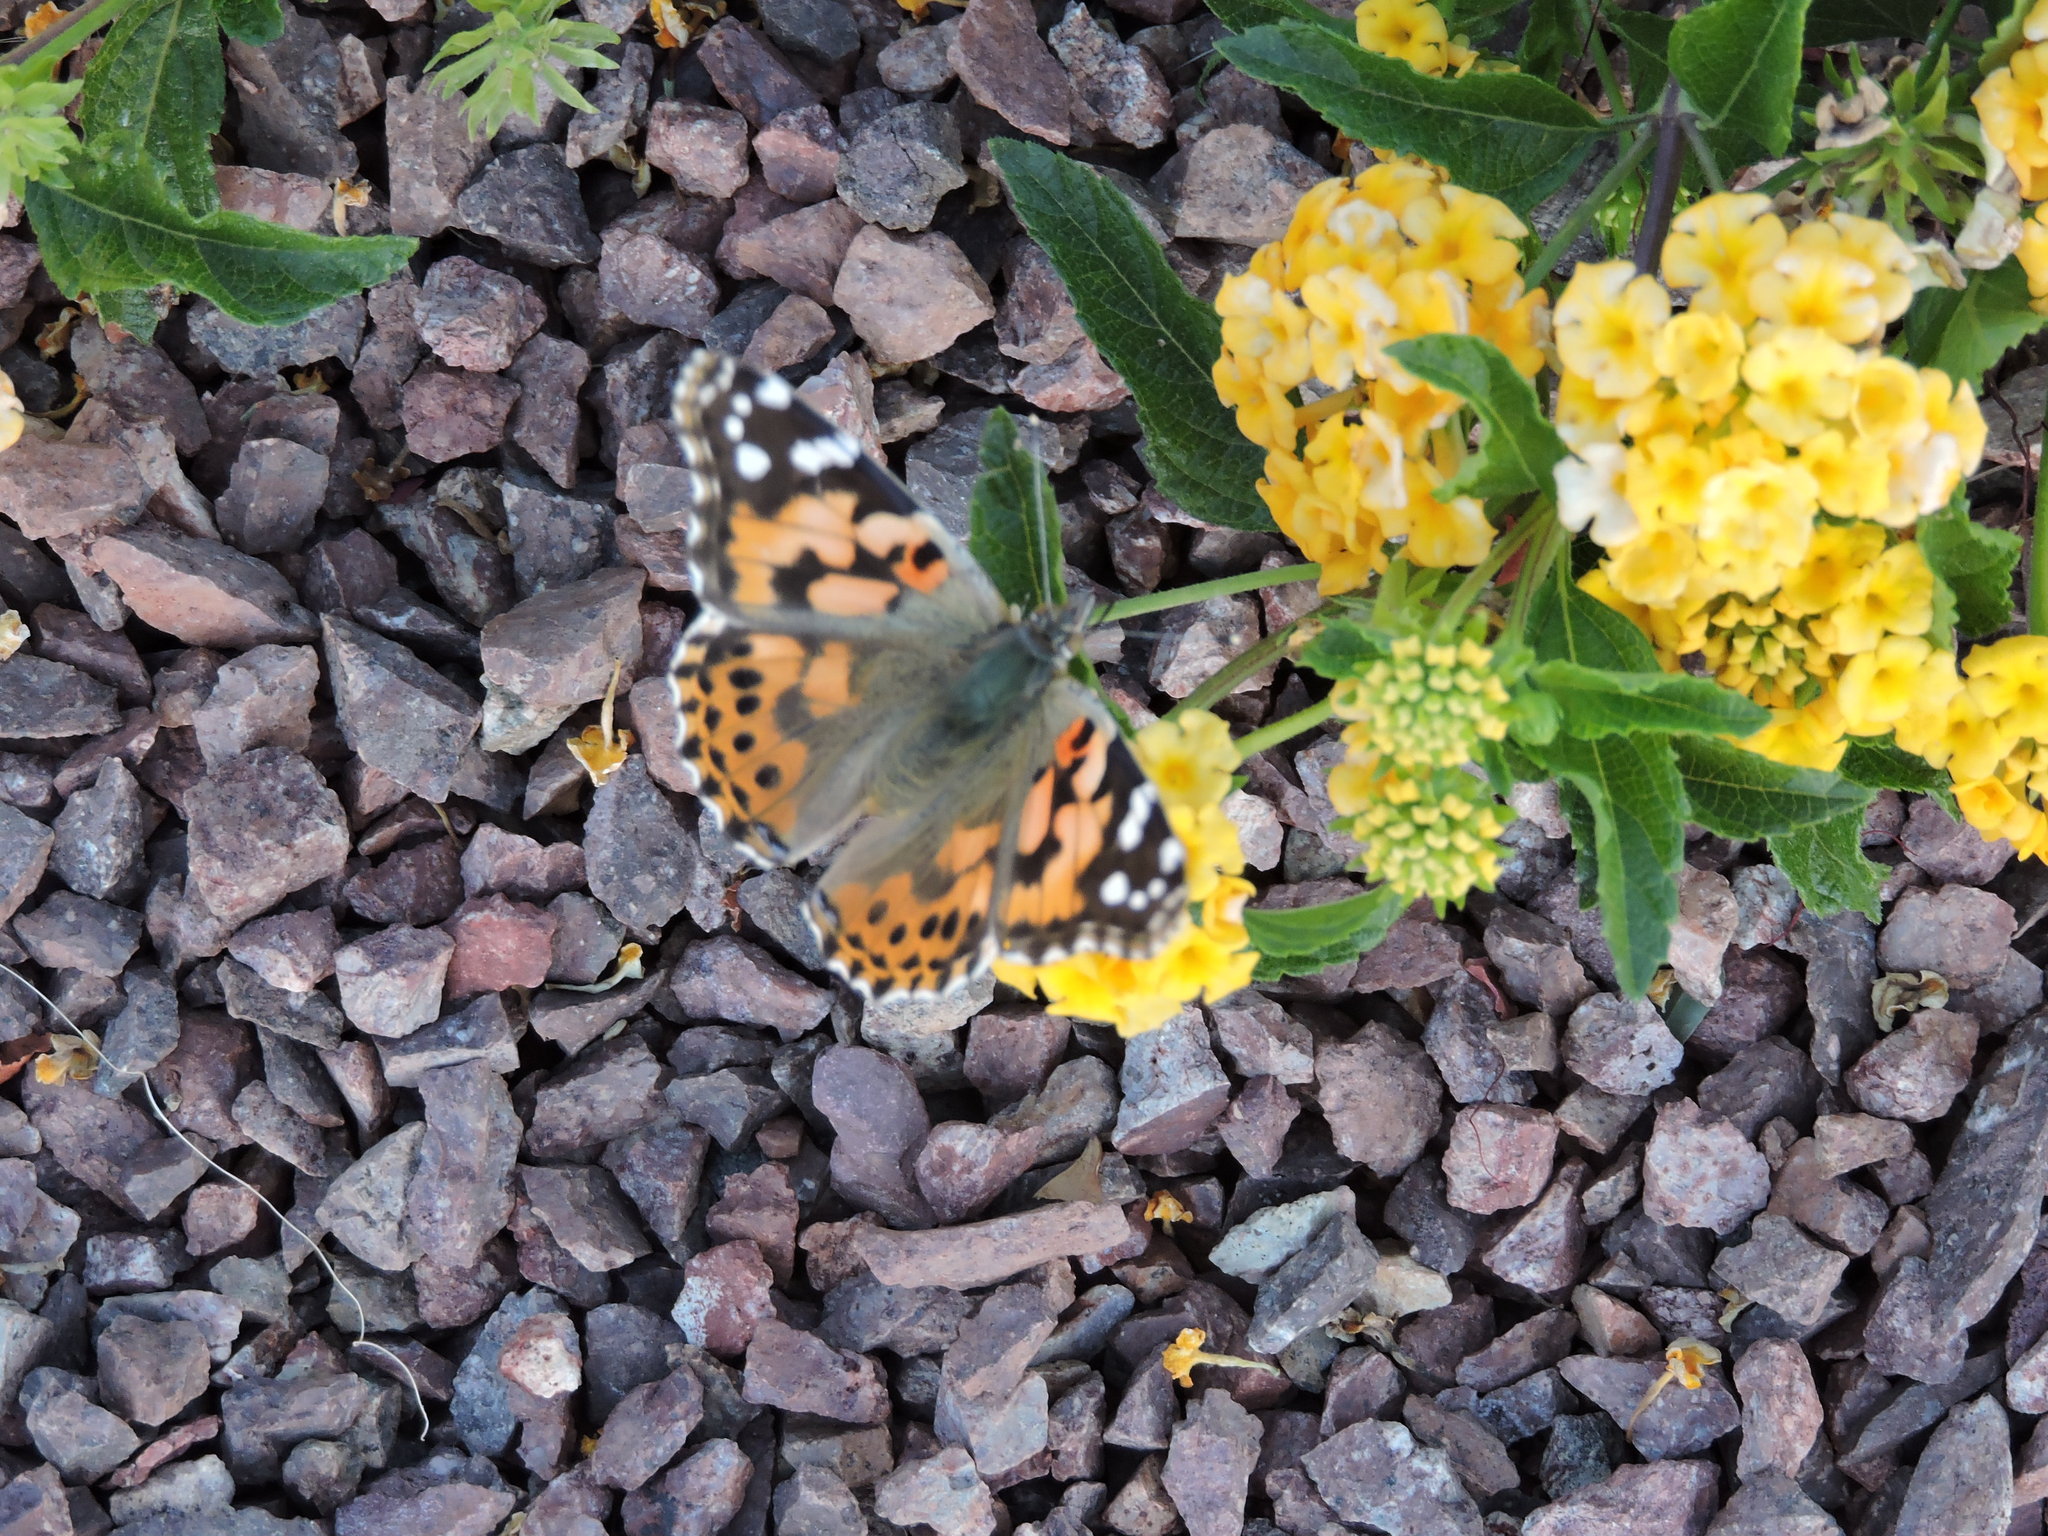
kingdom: Animalia
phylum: Arthropoda
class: Insecta
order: Lepidoptera
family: Nymphalidae
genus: Vanessa
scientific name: Vanessa cardui
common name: Painted lady
